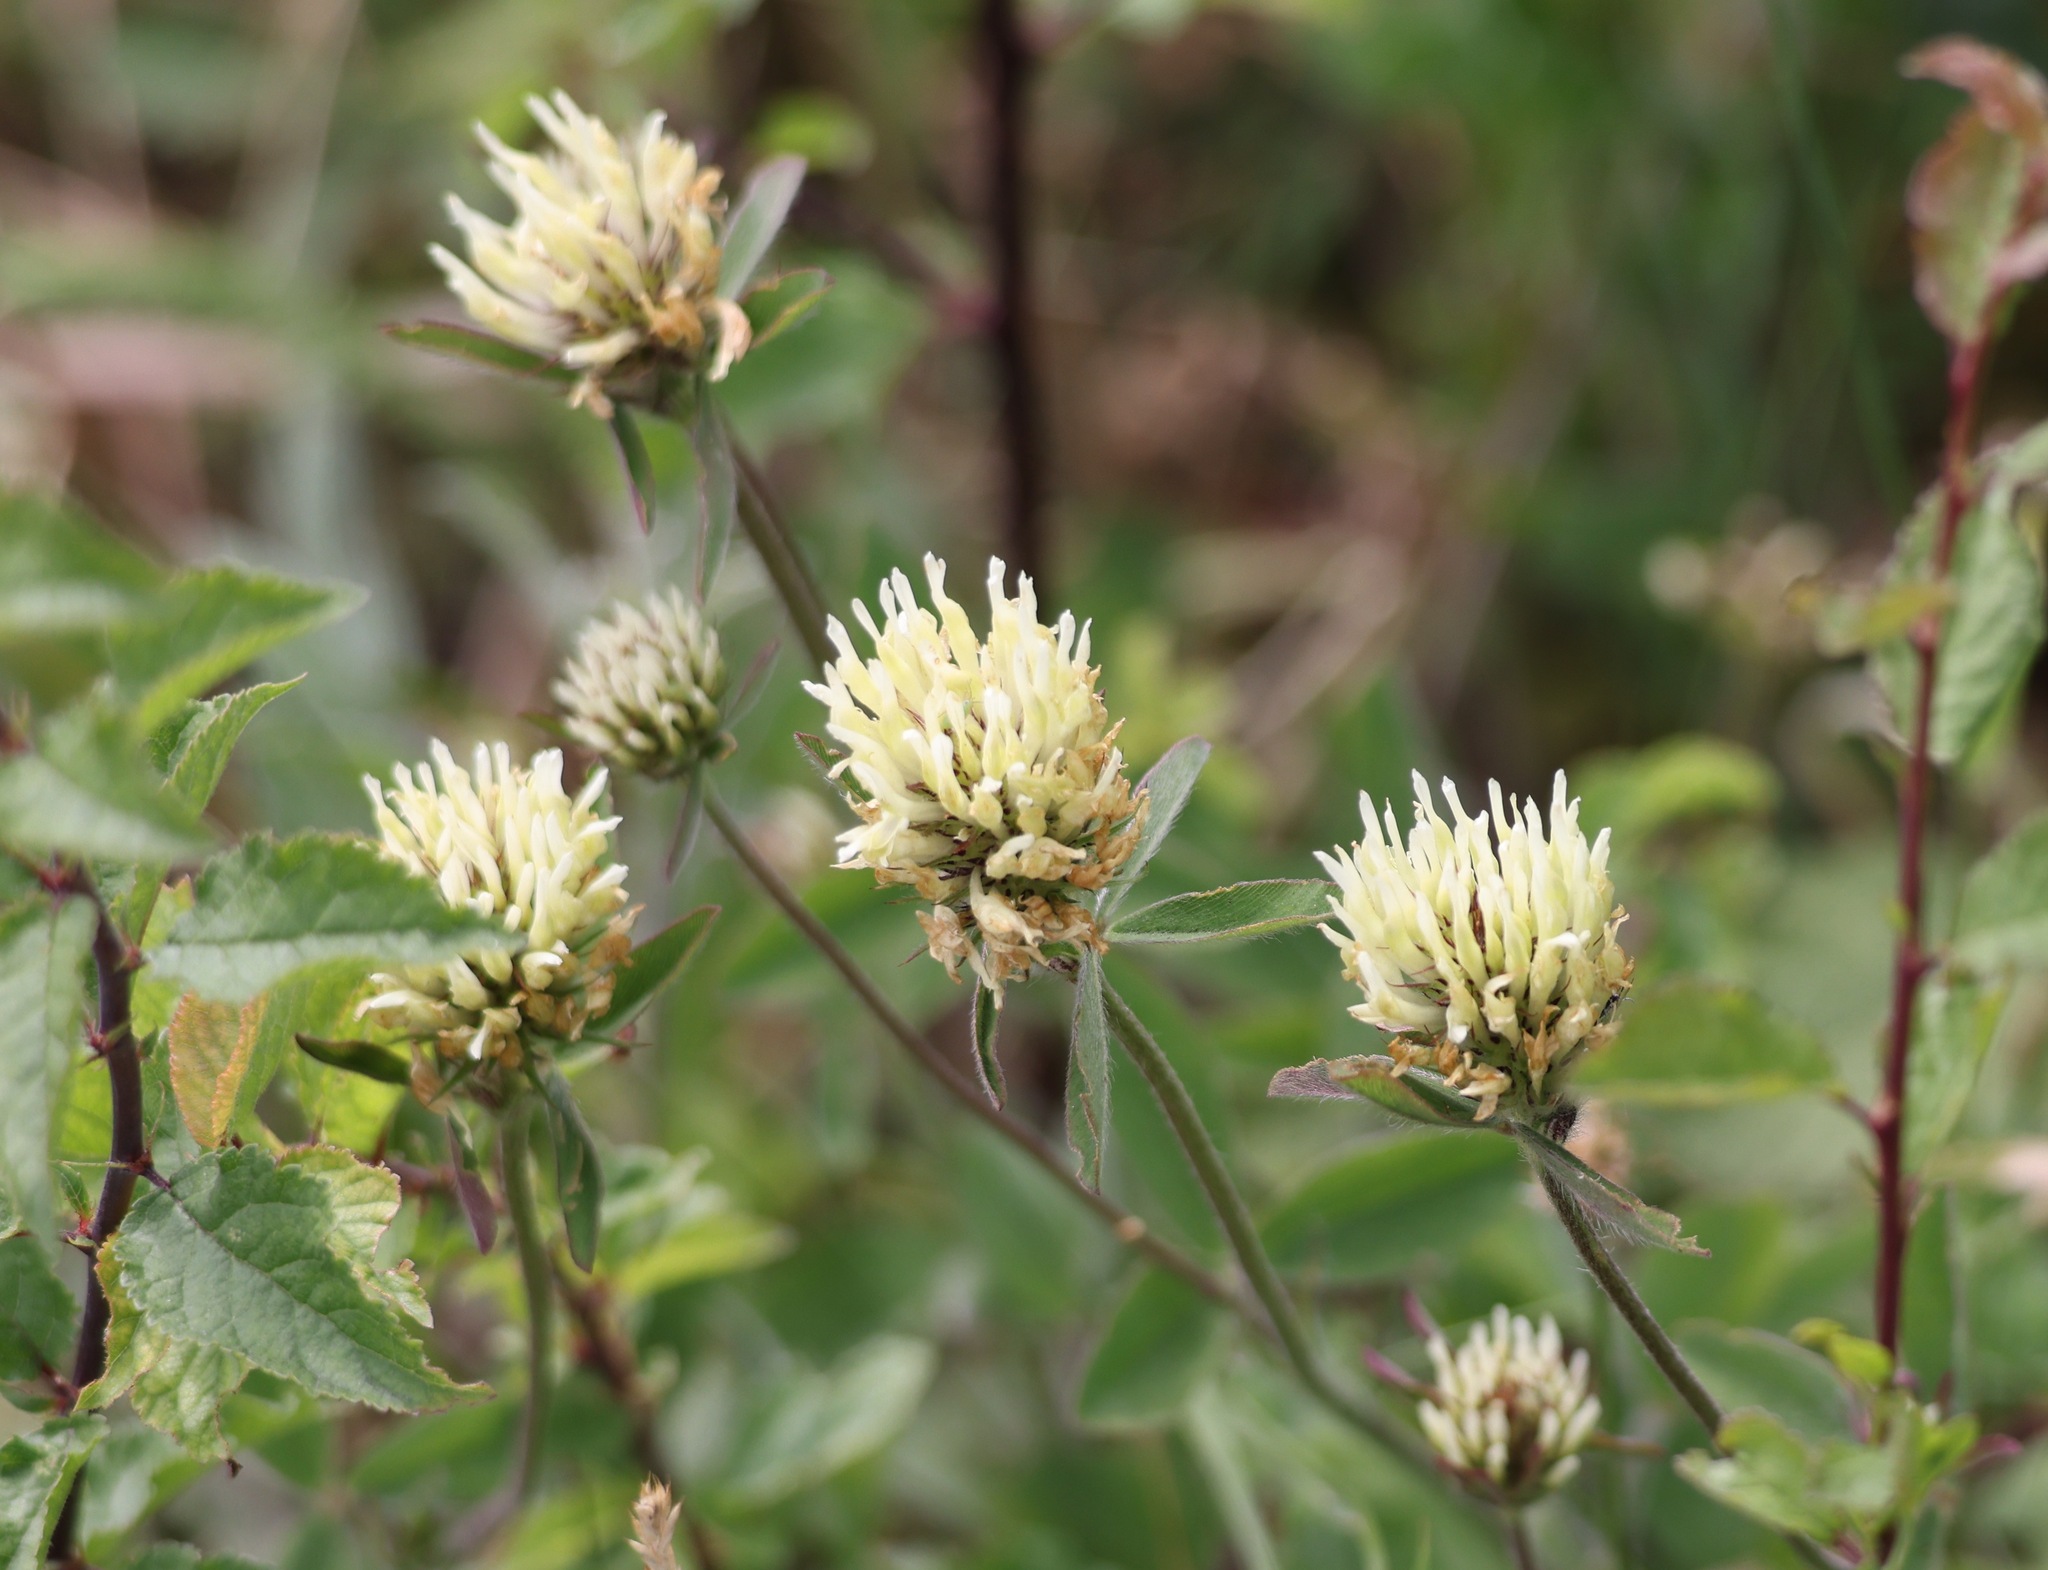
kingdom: Plantae
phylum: Tracheophyta
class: Magnoliopsida
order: Fabales
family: Fabaceae
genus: Trifolium
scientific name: Trifolium ochroleucon
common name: Sulphur clover
